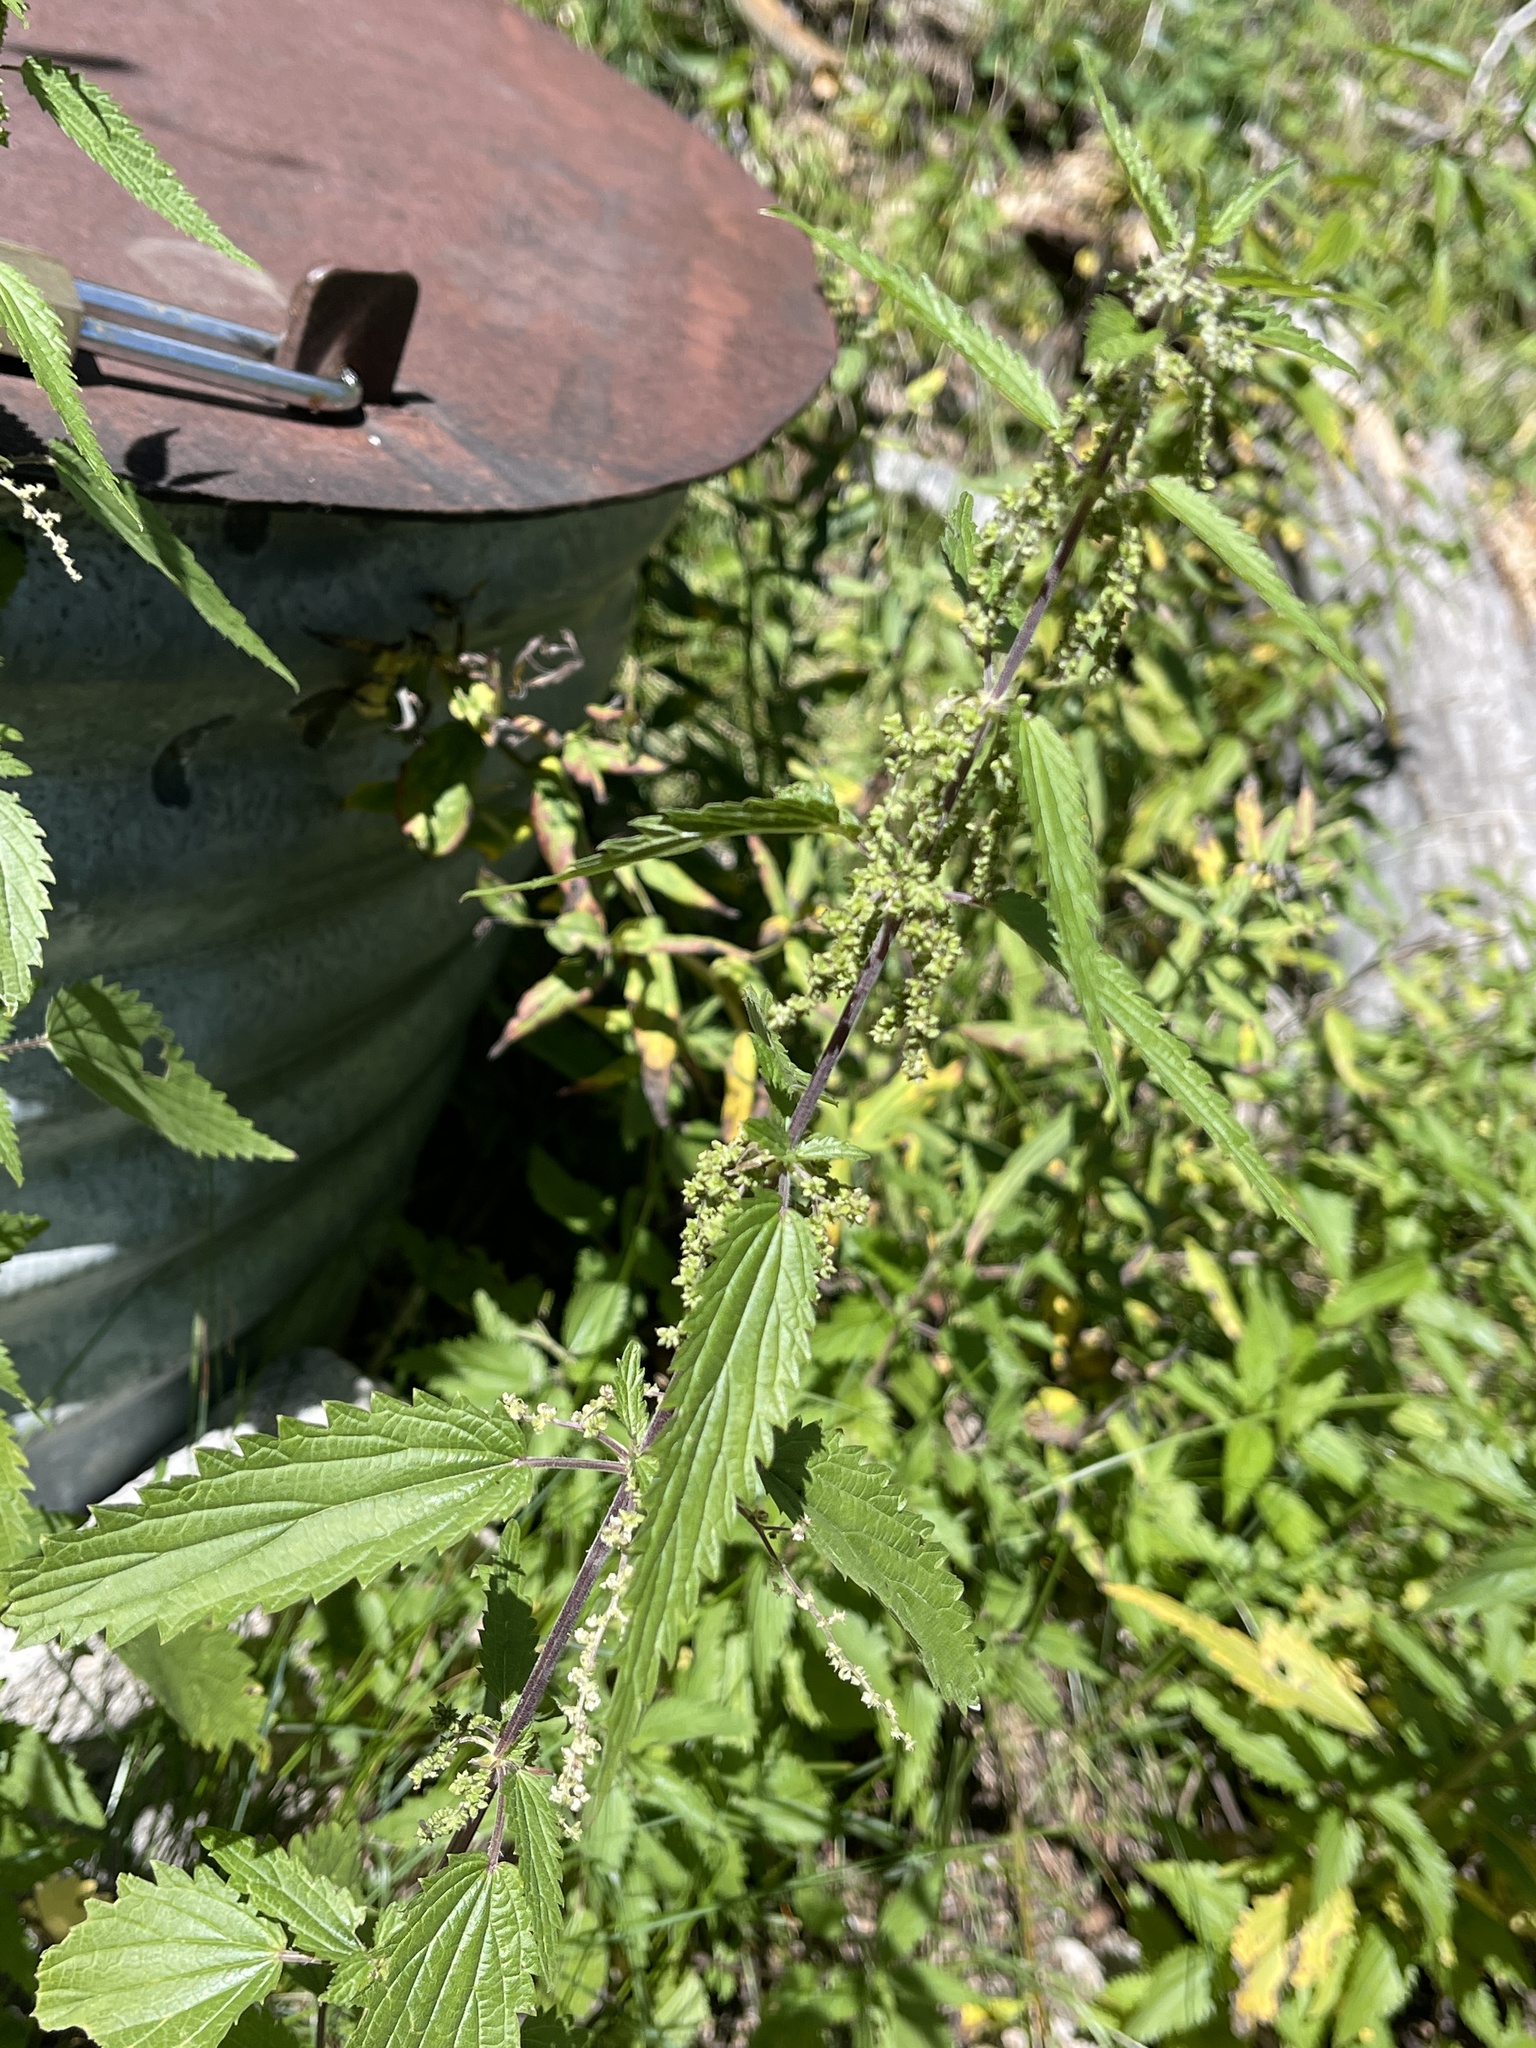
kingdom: Plantae
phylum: Tracheophyta
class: Magnoliopsida
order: Rosales
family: Urticaceae
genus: Urtica
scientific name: Urtica gracilis
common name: Slender stinging nettle
